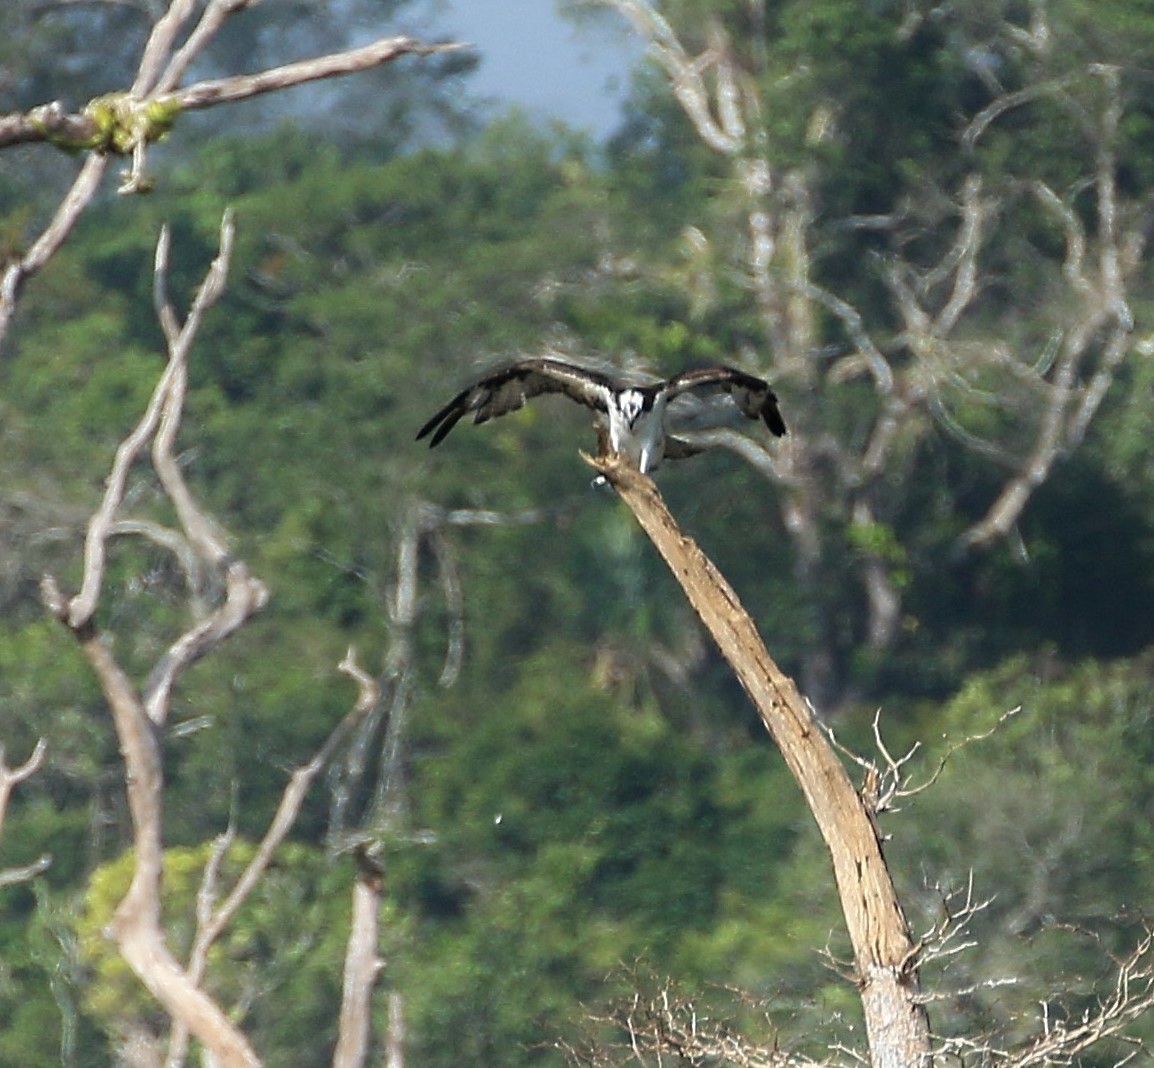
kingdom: Animalia
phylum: Chordata
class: Aves
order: Accipitriformes
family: Pandionidae
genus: Pandion
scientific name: Pandion haliaetus
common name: Osprey
